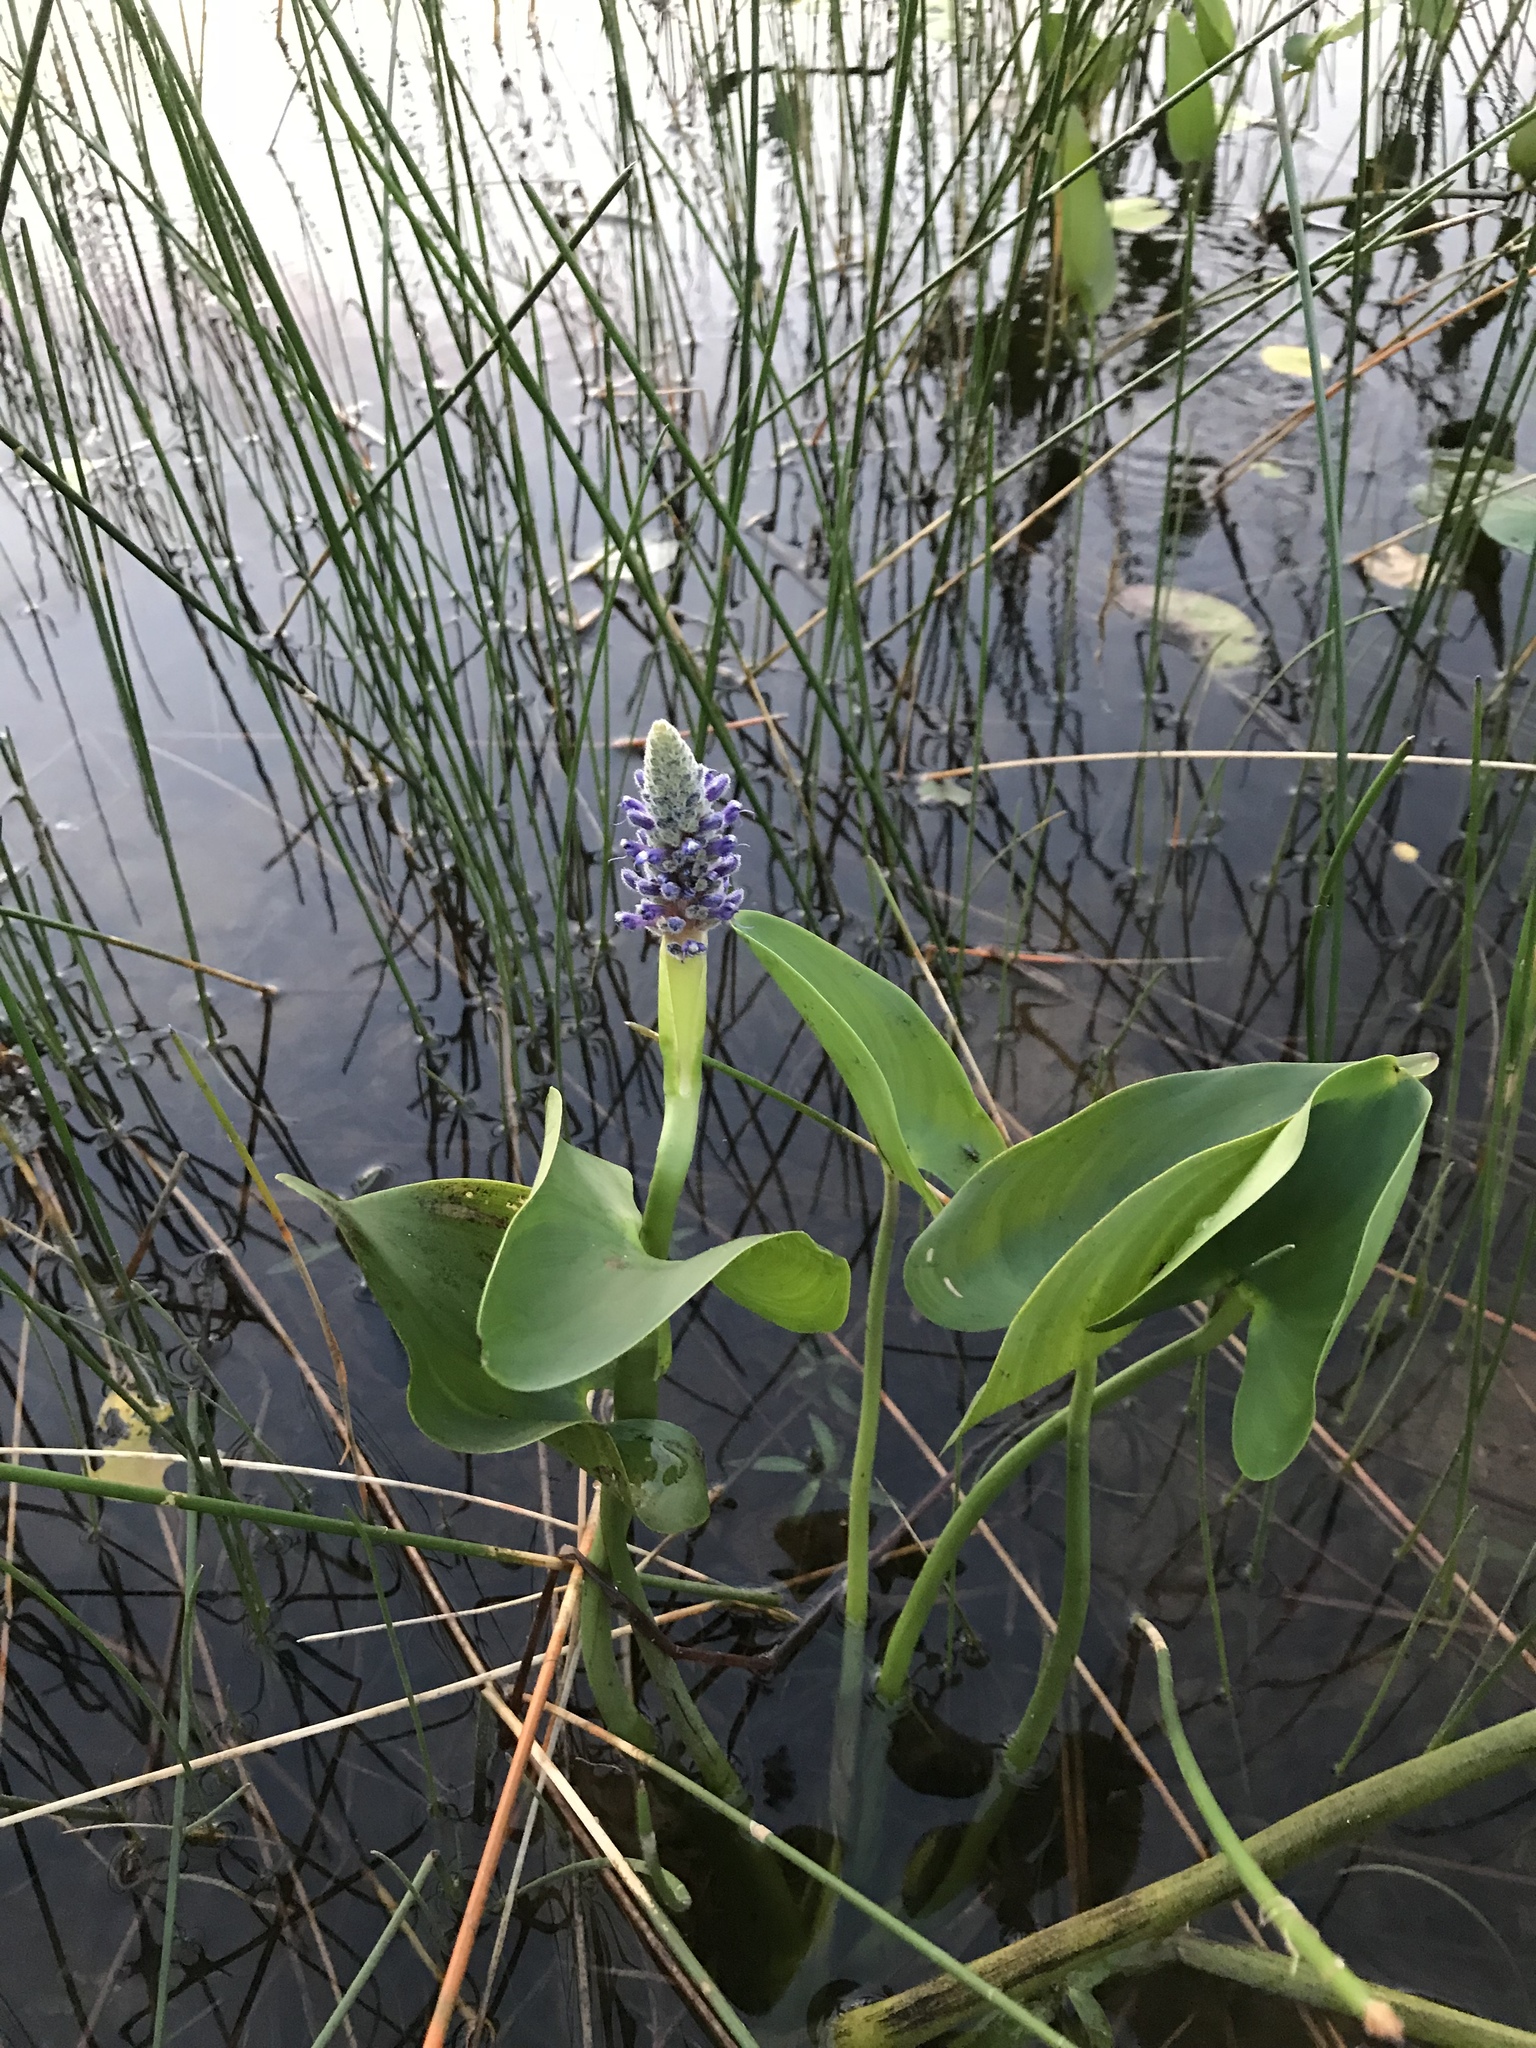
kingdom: Plantae
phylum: Tracheophyta
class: Liliopsida
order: Commelinales
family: Pontederiaceae
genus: Pontederia
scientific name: Pontederia cordata
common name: Pickerelweed
